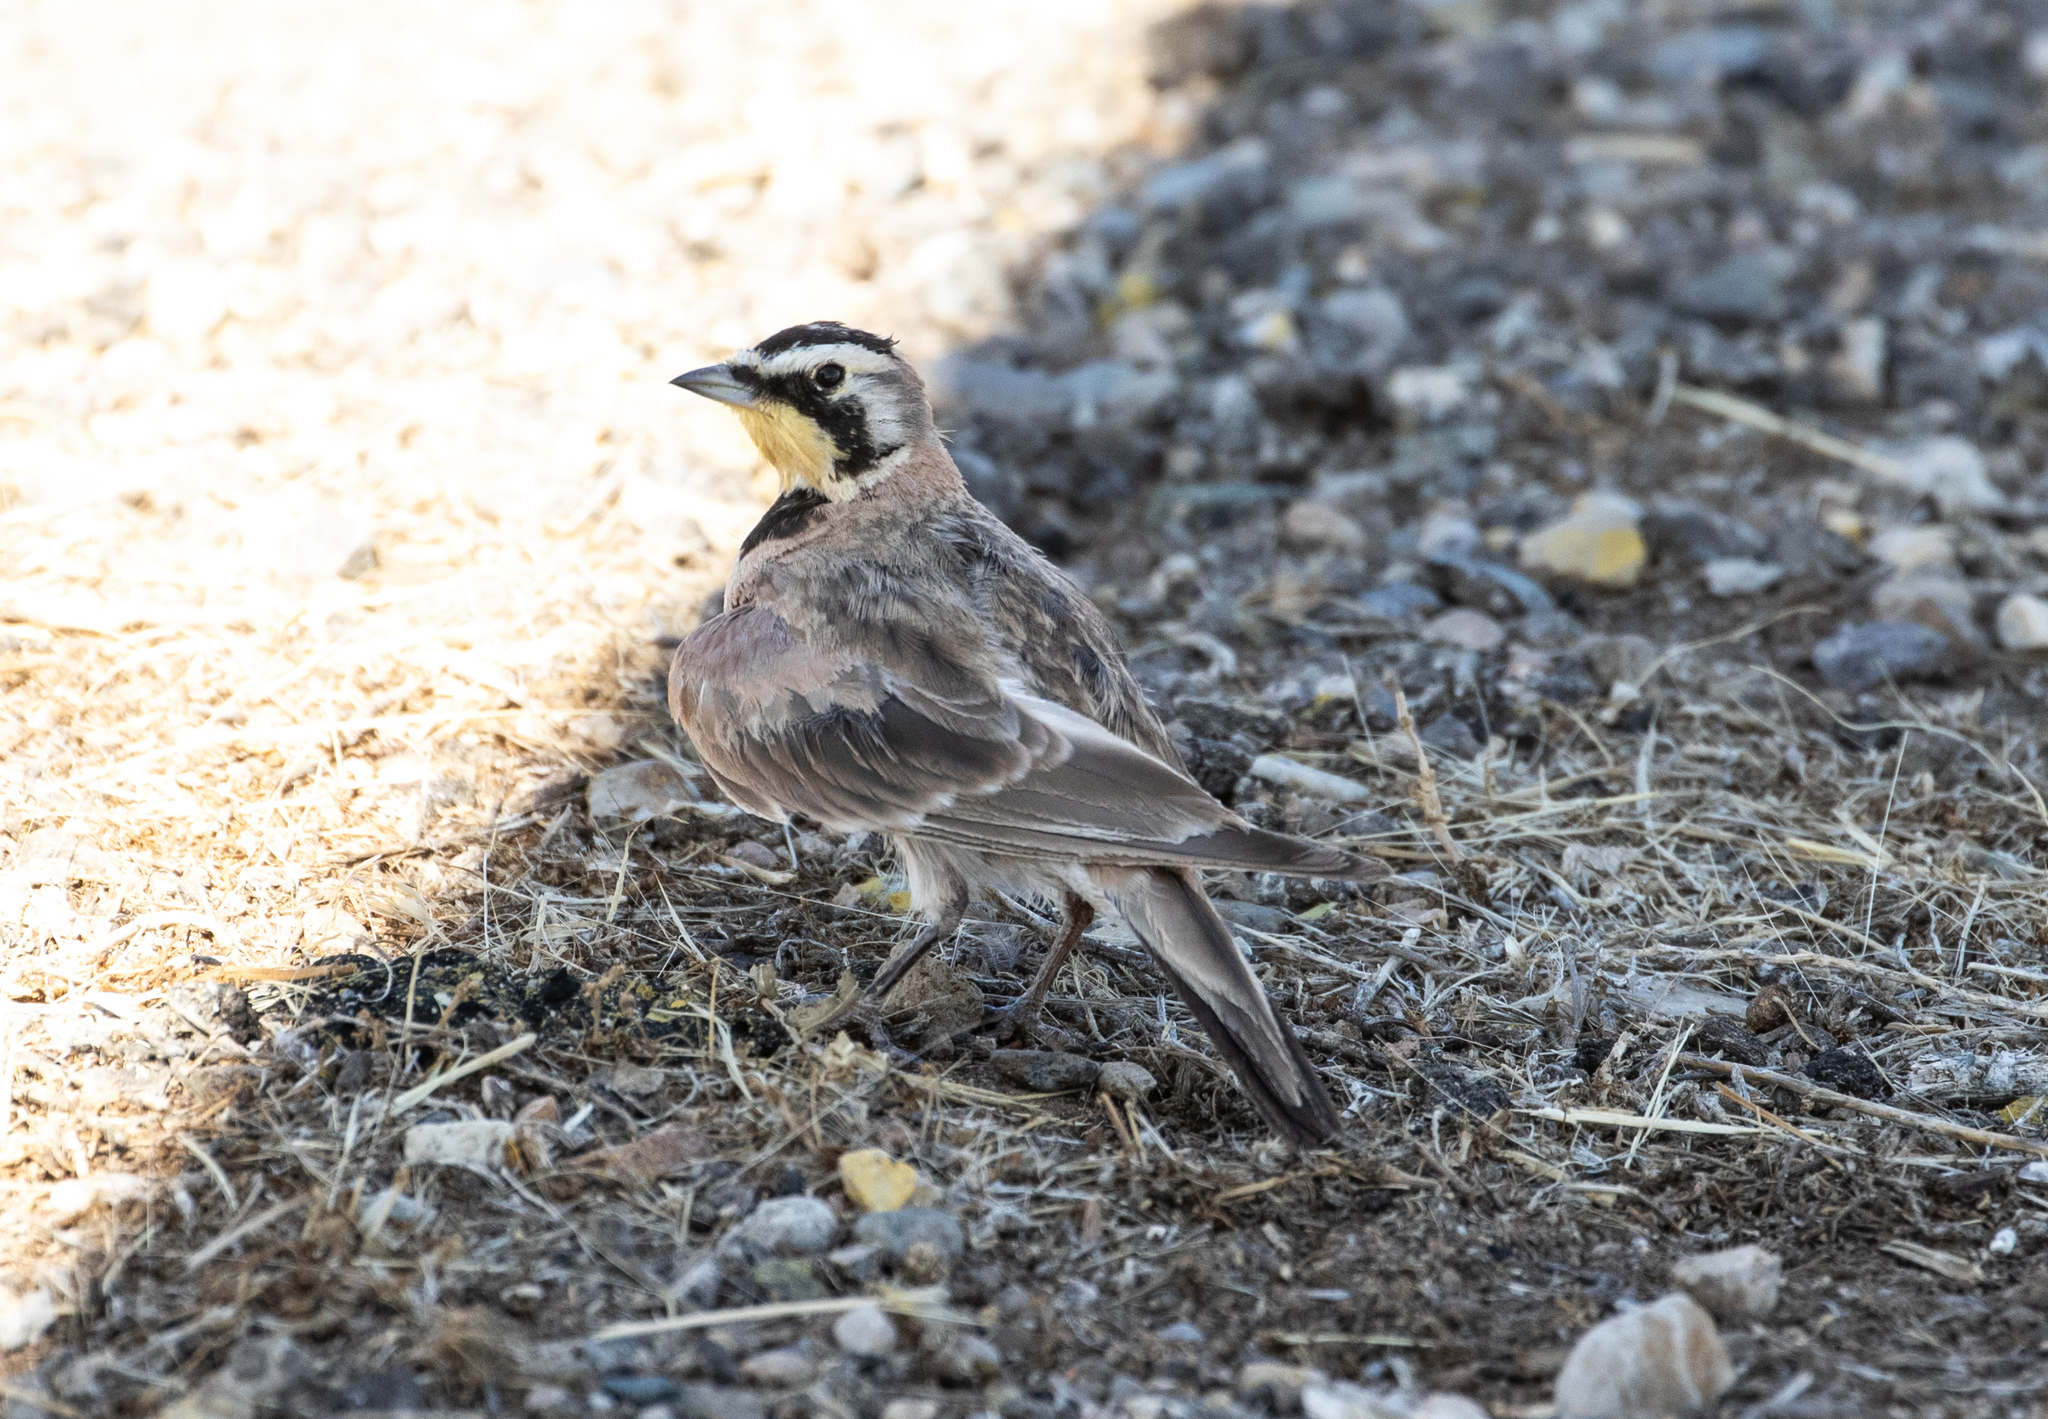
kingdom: Animalia
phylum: Chordata
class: Aves
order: Passeriformes
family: Alaudidae
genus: Eremophila
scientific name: Eremophila alpestris
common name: Horned lark
